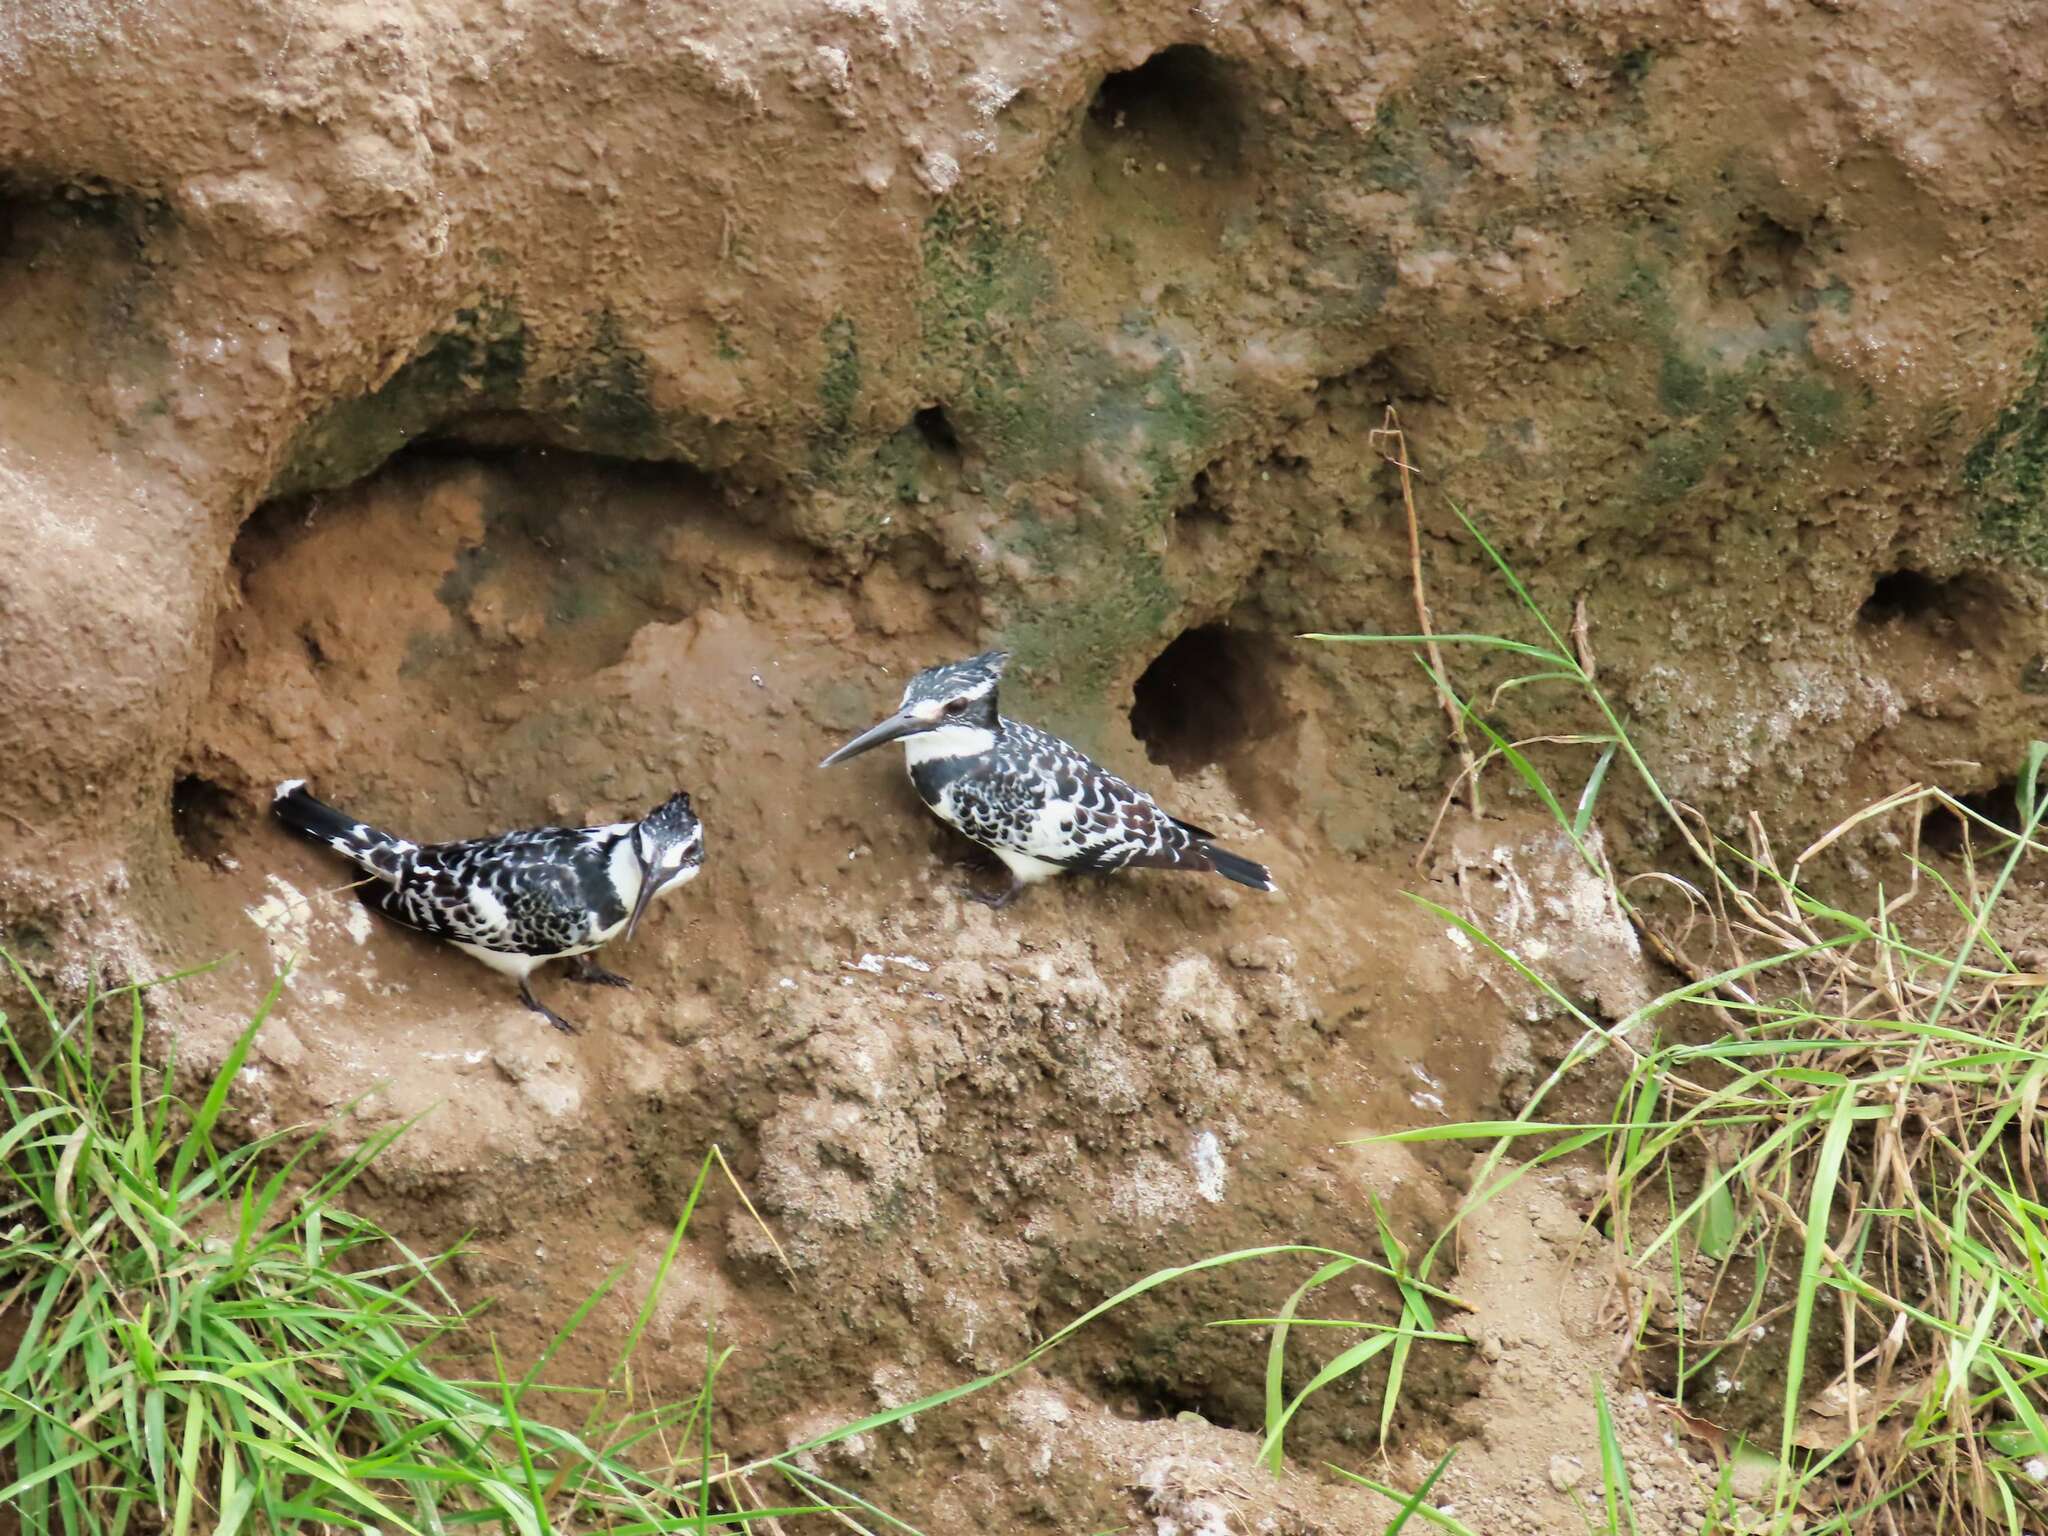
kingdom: Animalia
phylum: Chordata
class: Aves
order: Coraciiformes
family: Alcedinidae
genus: Ceryle
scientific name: Ceryle rudis
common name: Pied kingfisher
